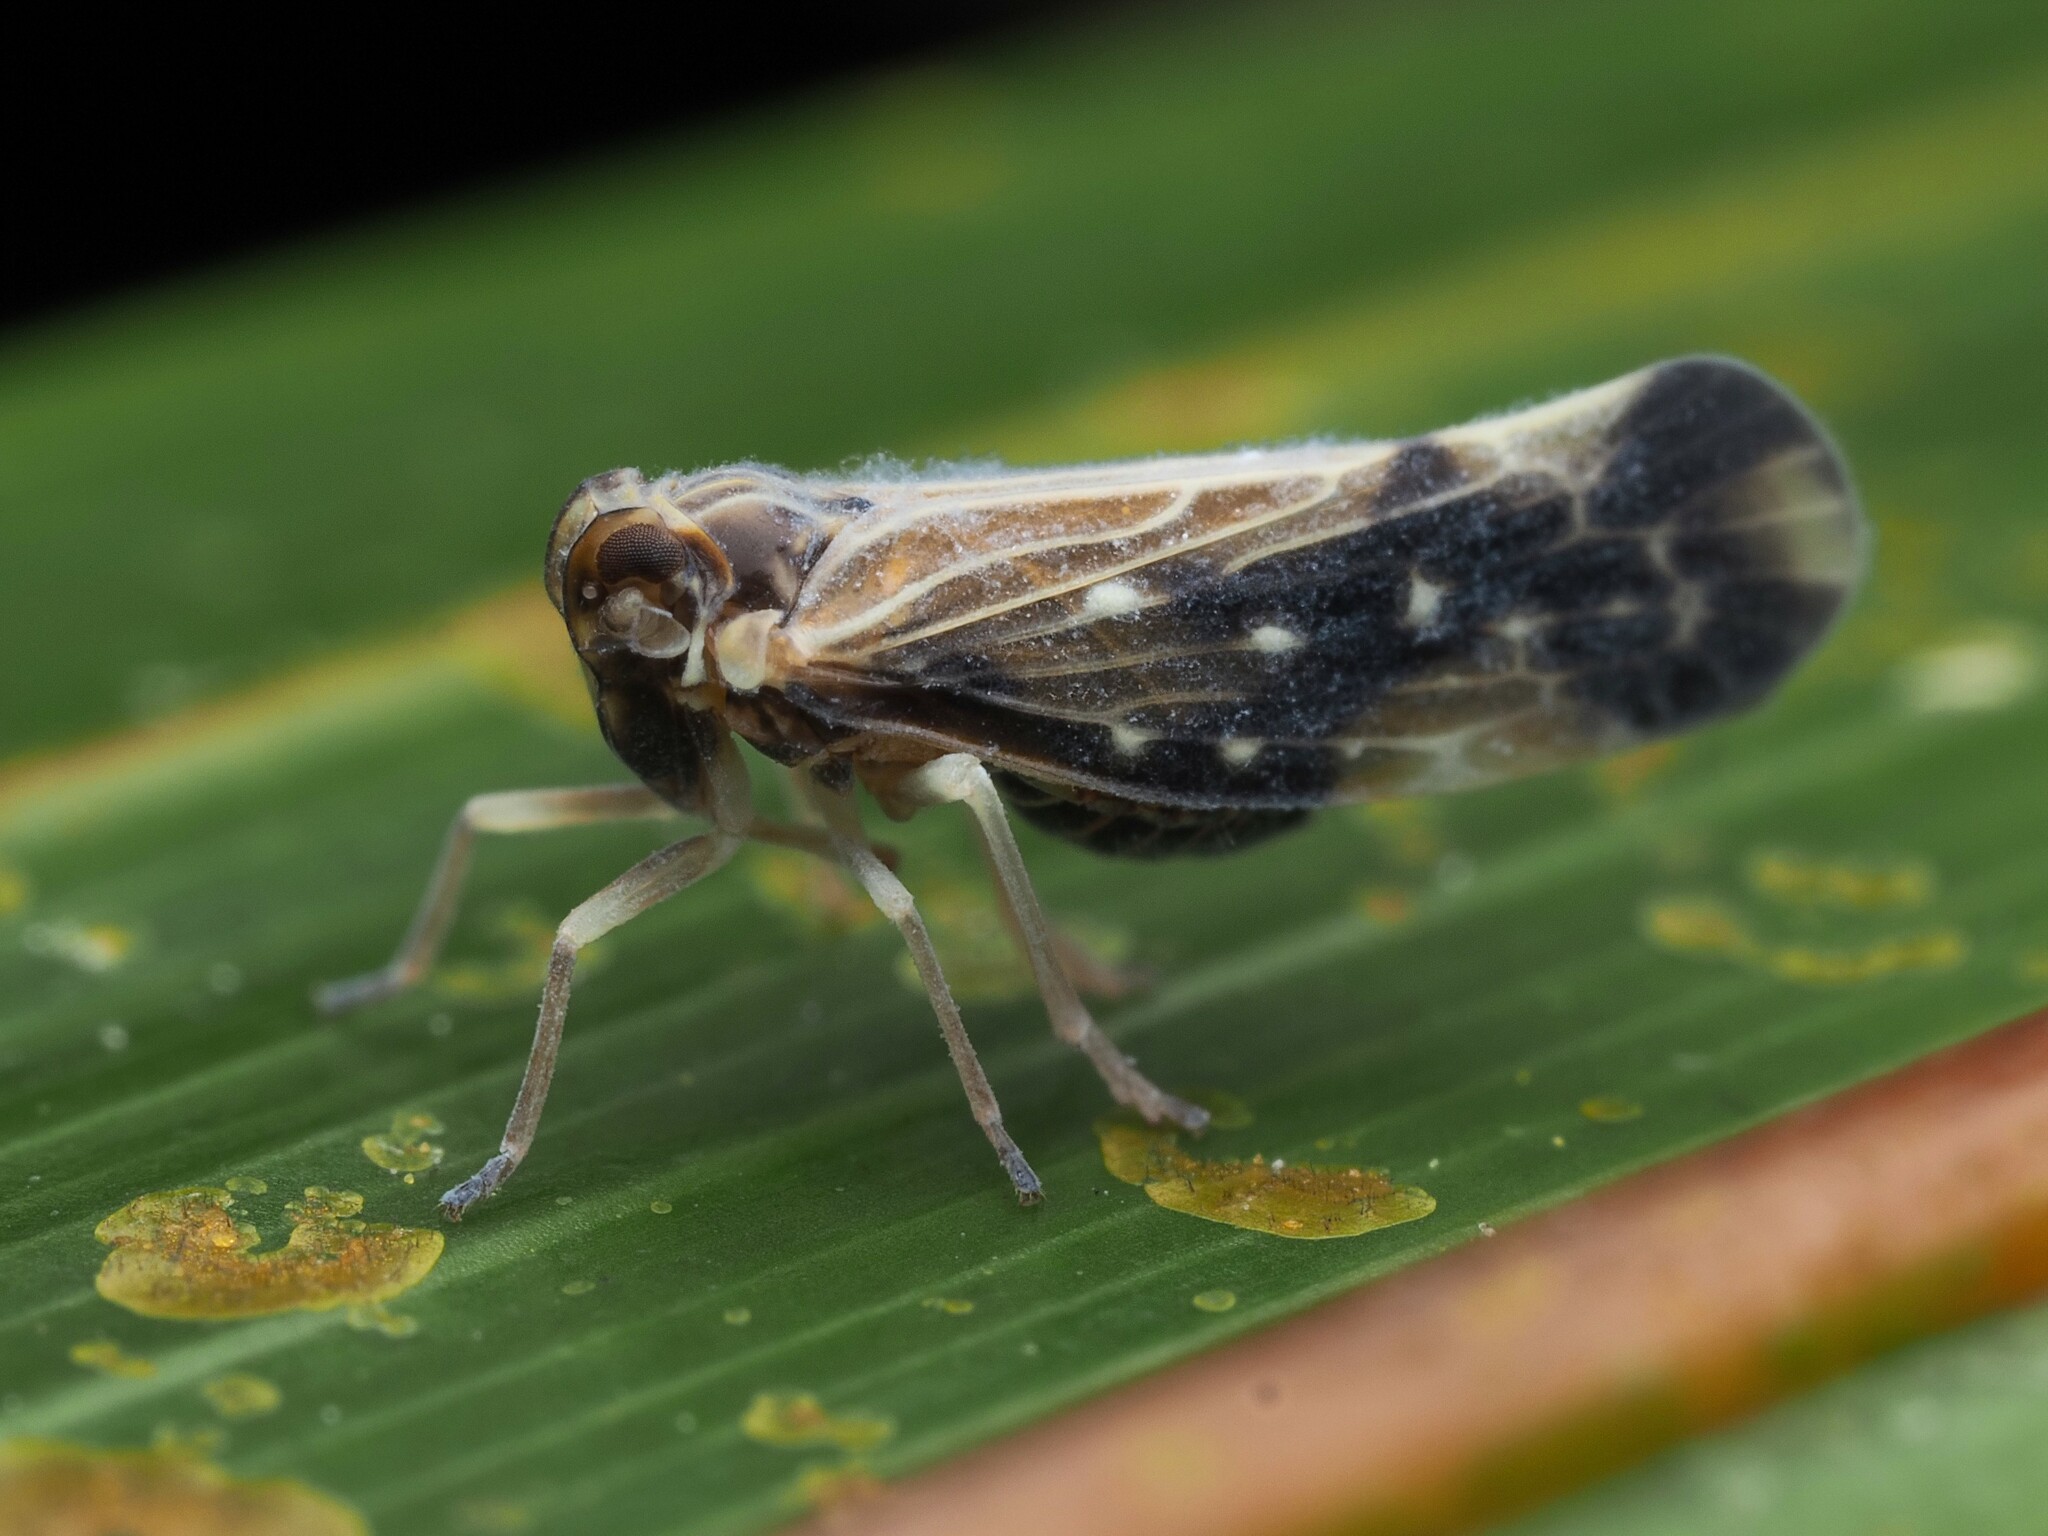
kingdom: Animalia
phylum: Arthropoda
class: Insecta
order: Hemiptera
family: Derbidae
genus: Eocenchrea
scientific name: Eocenchrea maorica
